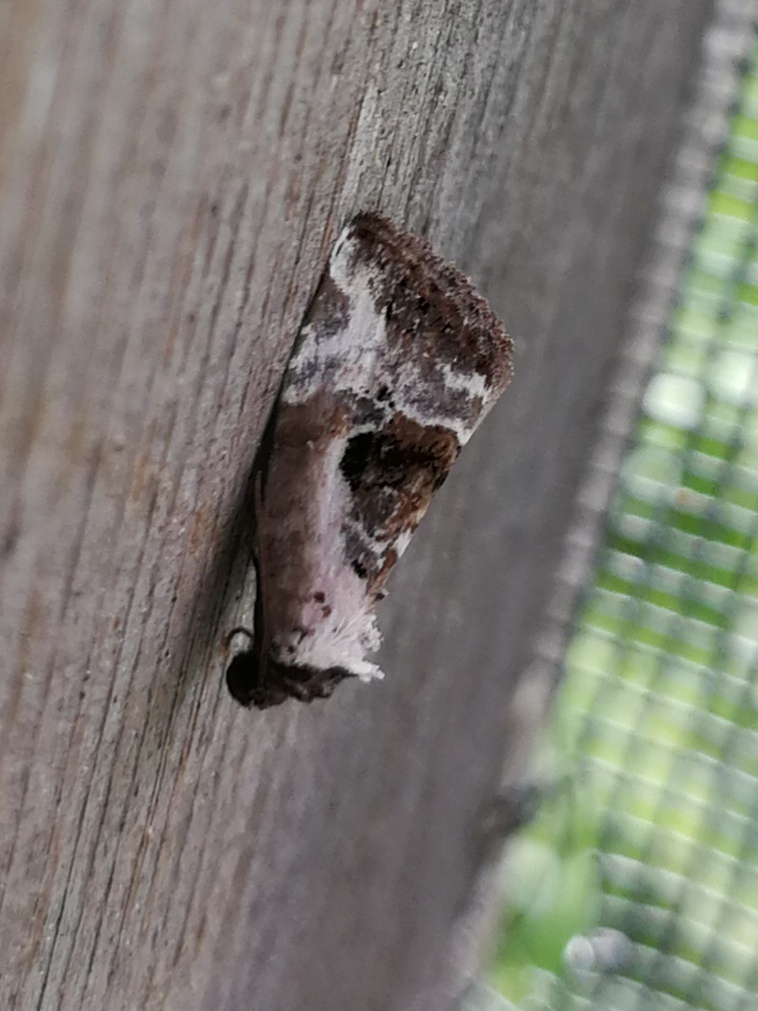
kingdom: Animalia
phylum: Arthropoda
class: Insecta
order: Lepidoptera
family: Noctuidae
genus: Elaphria
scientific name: Elaphria venustula
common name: Rosy marbled
